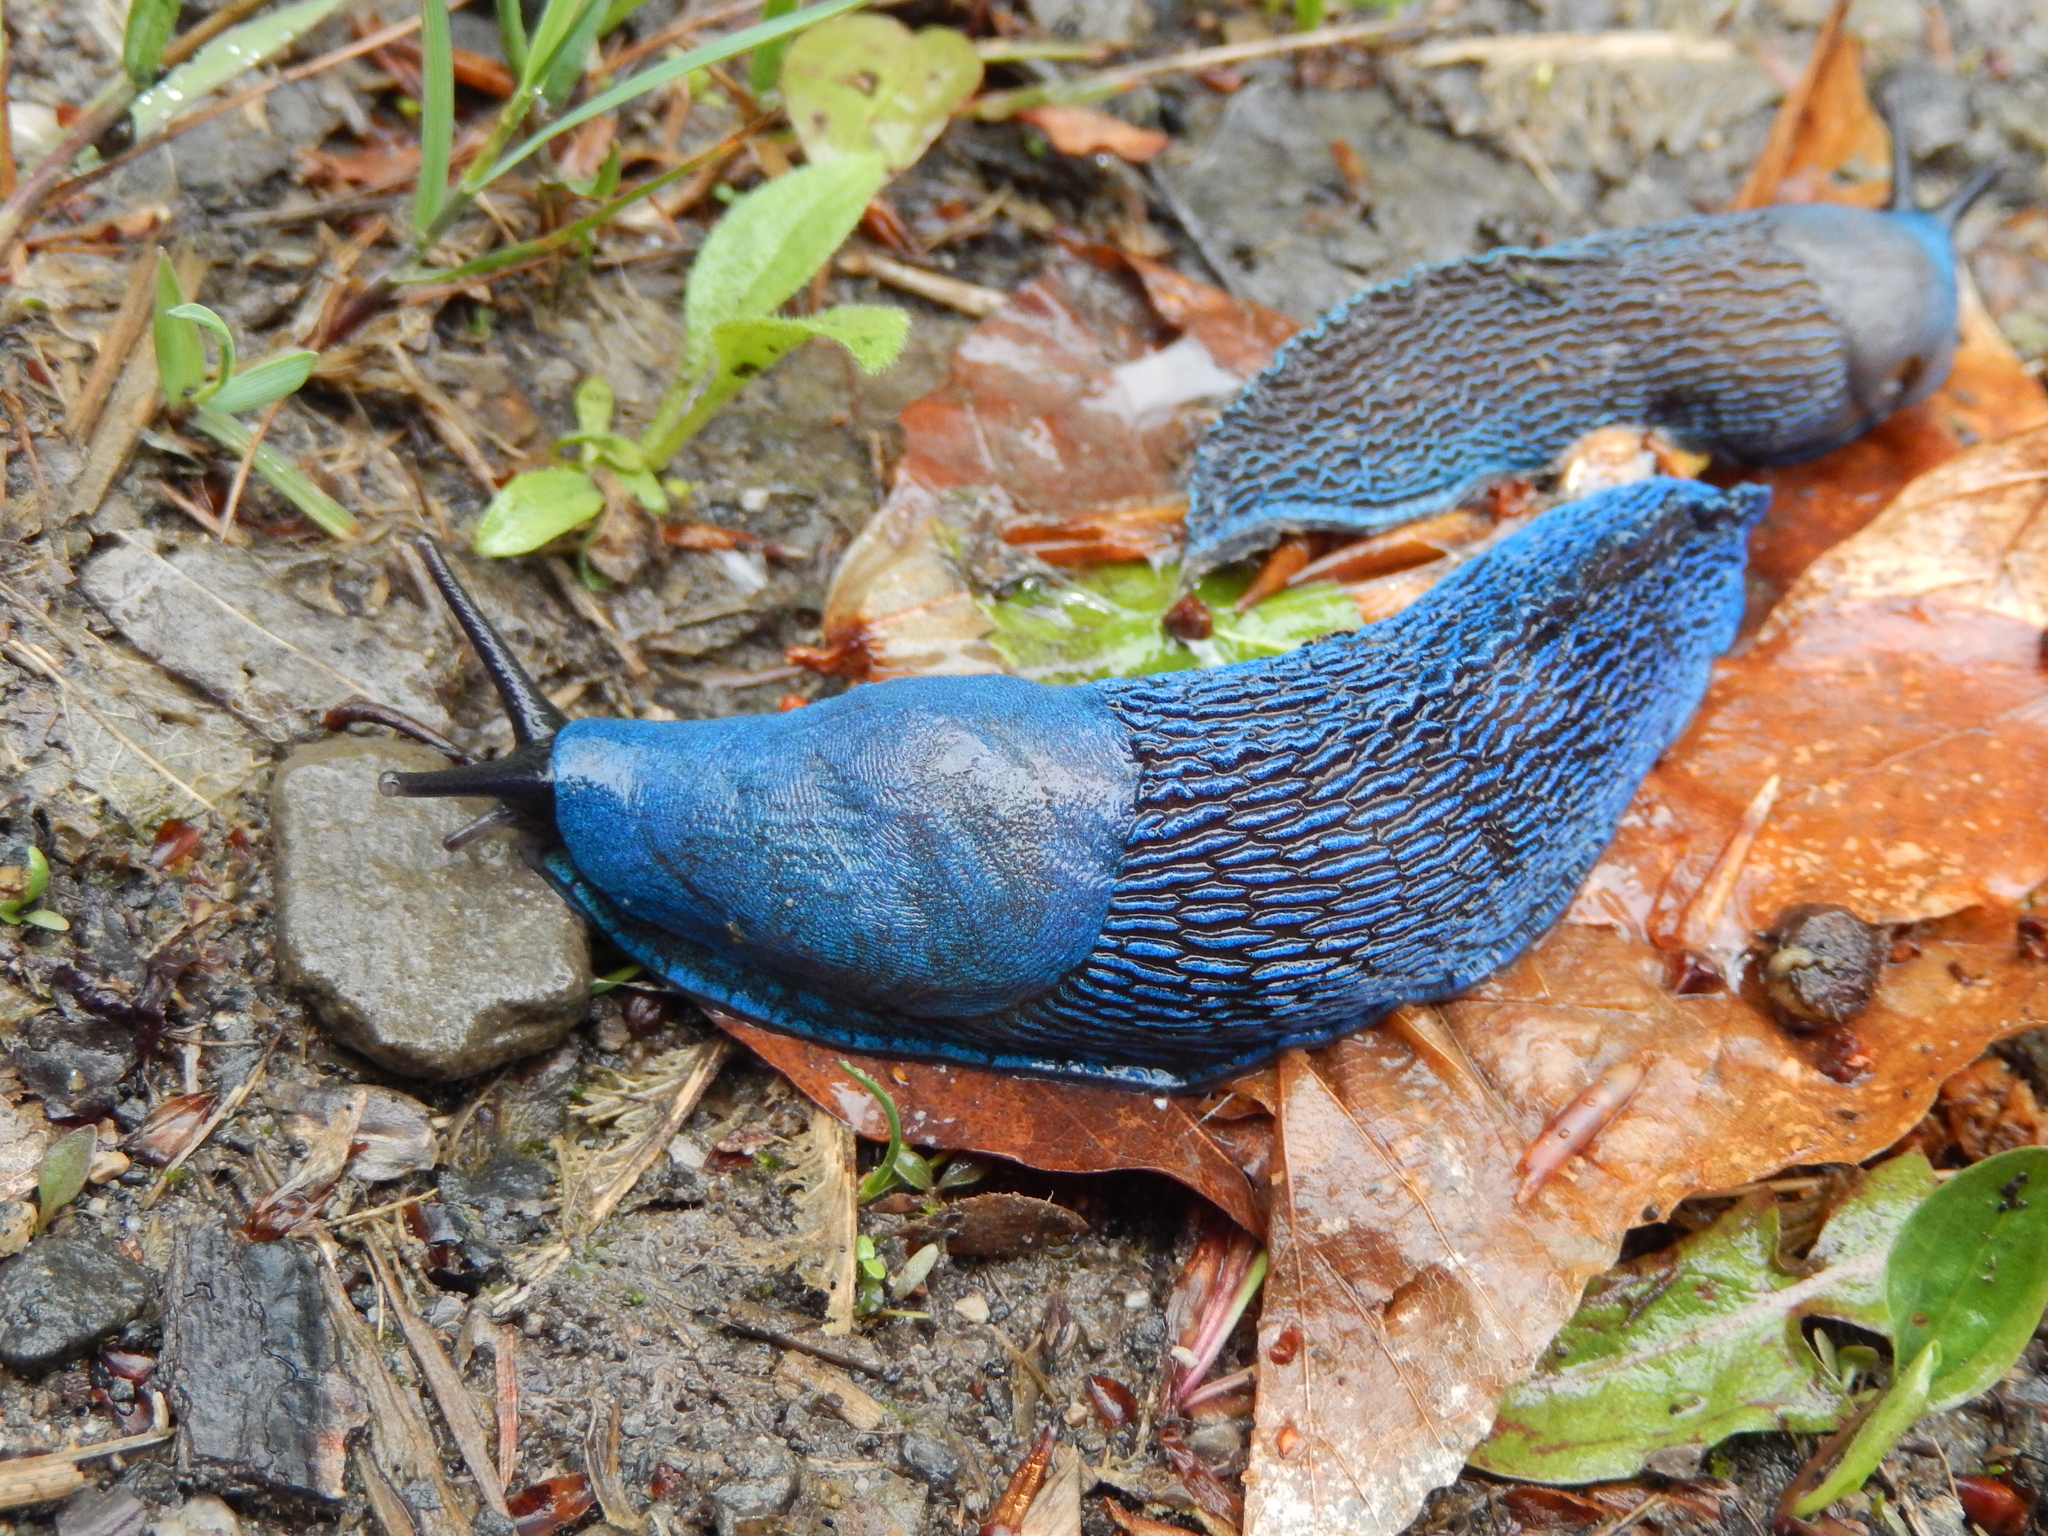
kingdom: Animalia
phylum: Mollusca
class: Gastropoda
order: Stylommatophora
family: Limacidae
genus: Bielzia
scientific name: Bielzia coerulans
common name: Carpathian blue slug
